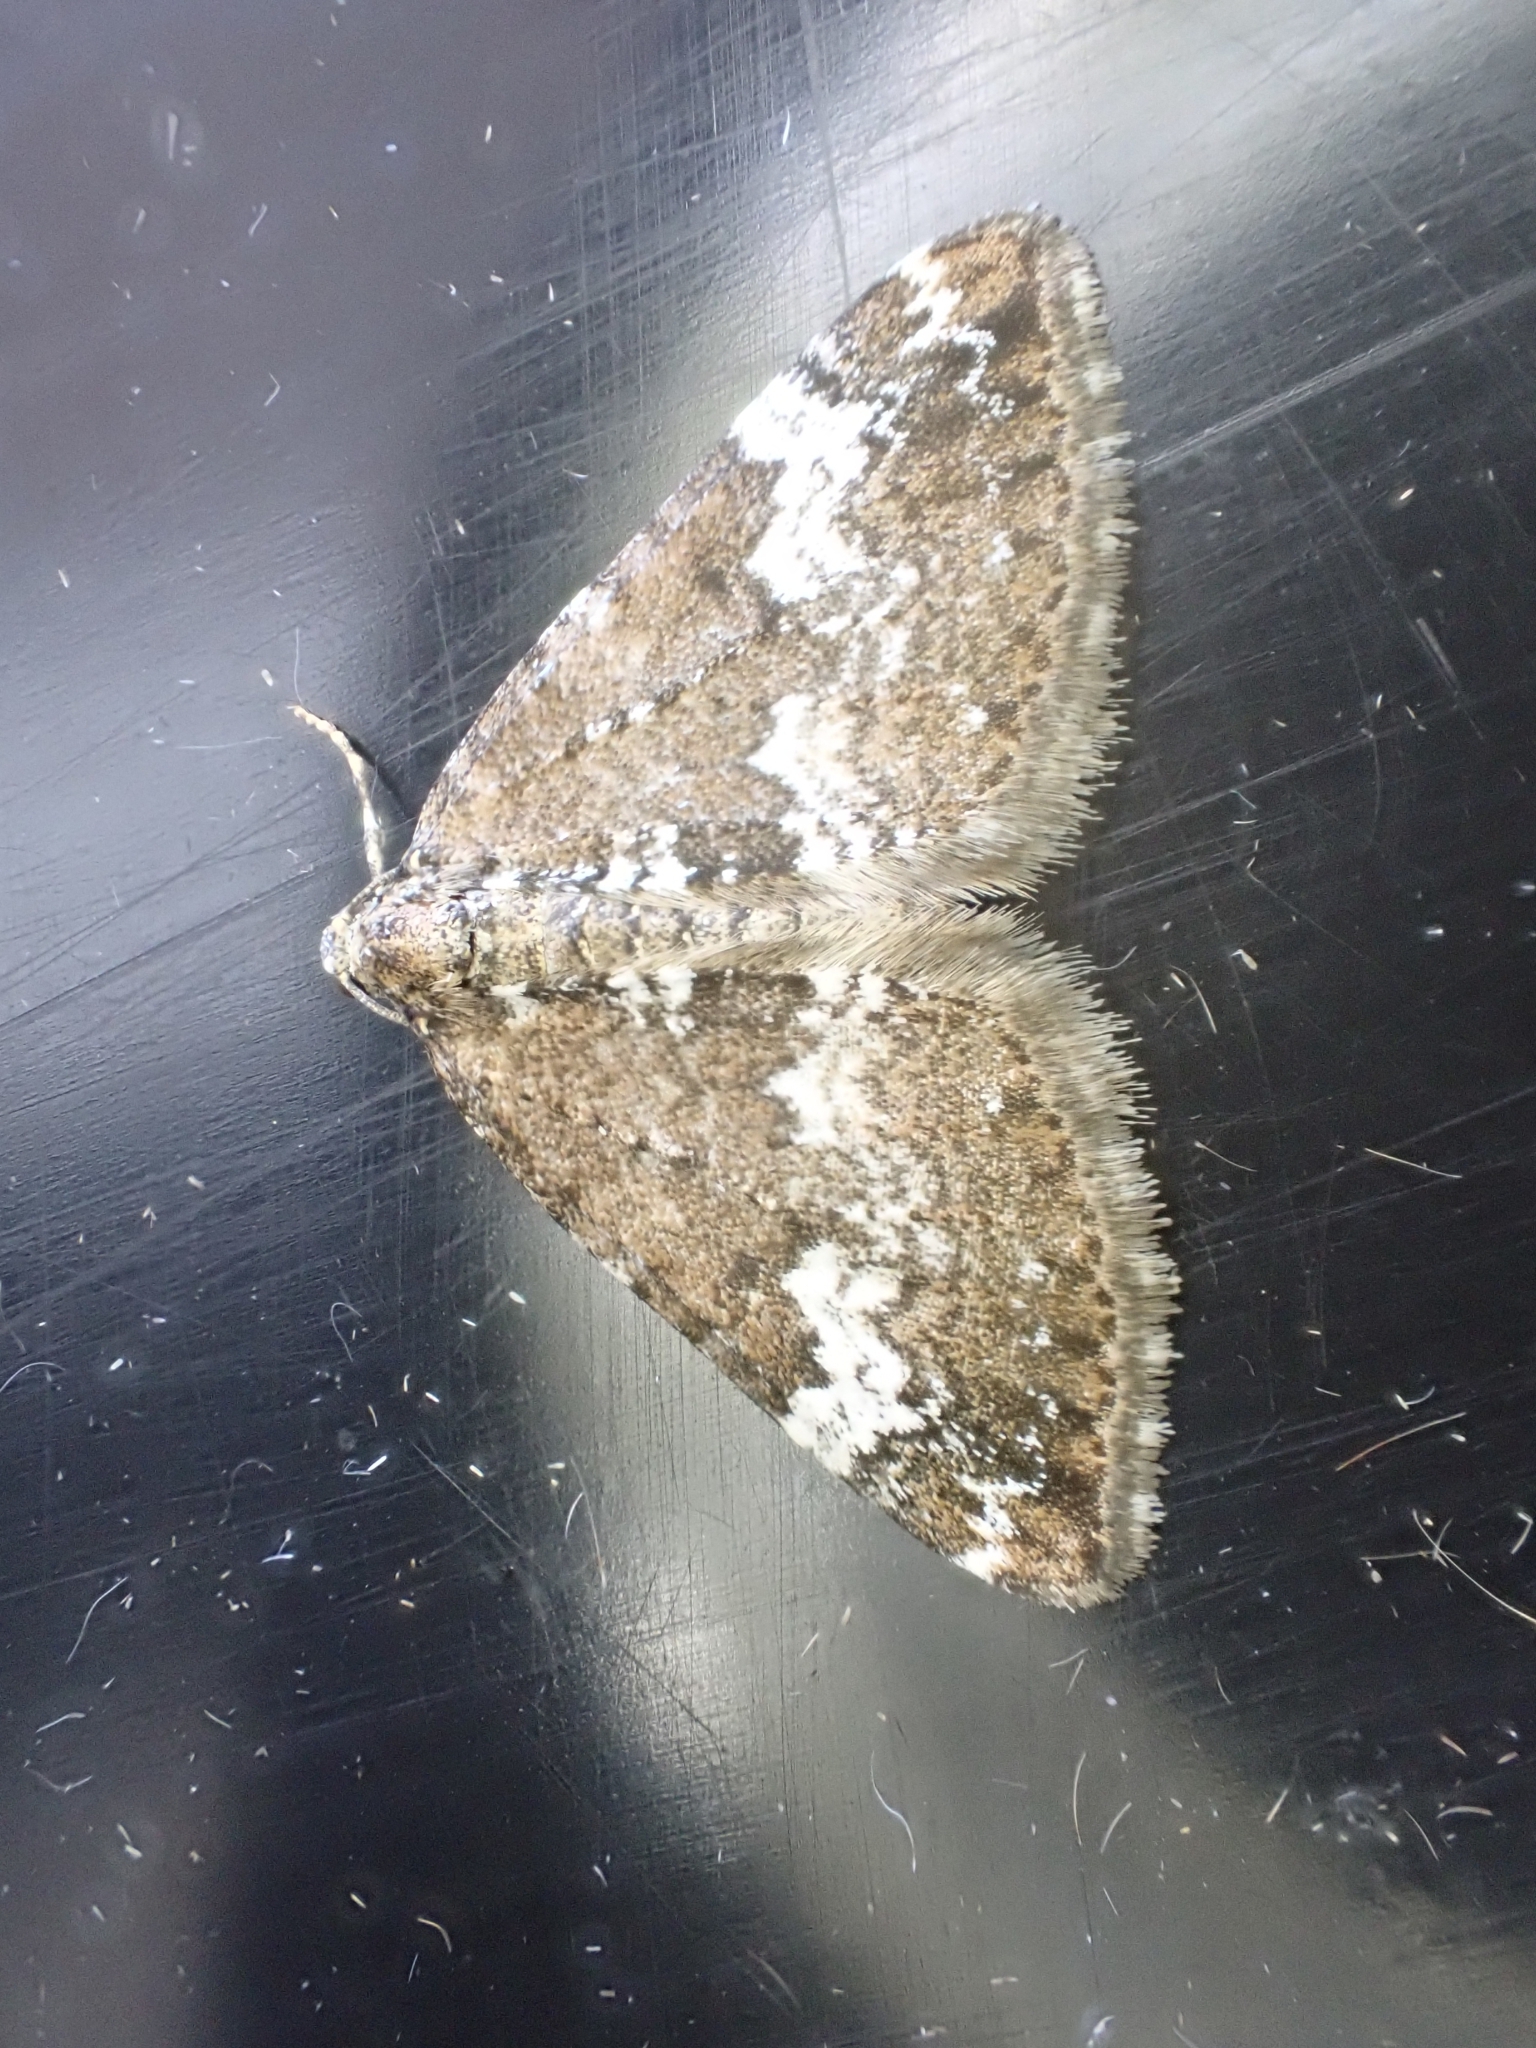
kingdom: Animalia
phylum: Arthropoda
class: Insecta
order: Lepidoptera
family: Geometridae
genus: Perizoma
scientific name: Perizoma alchemillata
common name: Small rivulet
